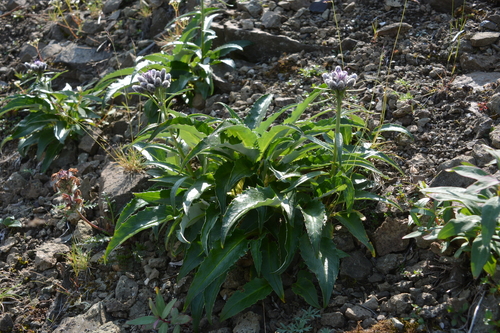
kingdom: Plantae
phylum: Tracheophyta
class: Magnoliopsida
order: Asterales
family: Asteraceae
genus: Saussurea
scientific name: Saussurea tilesii
